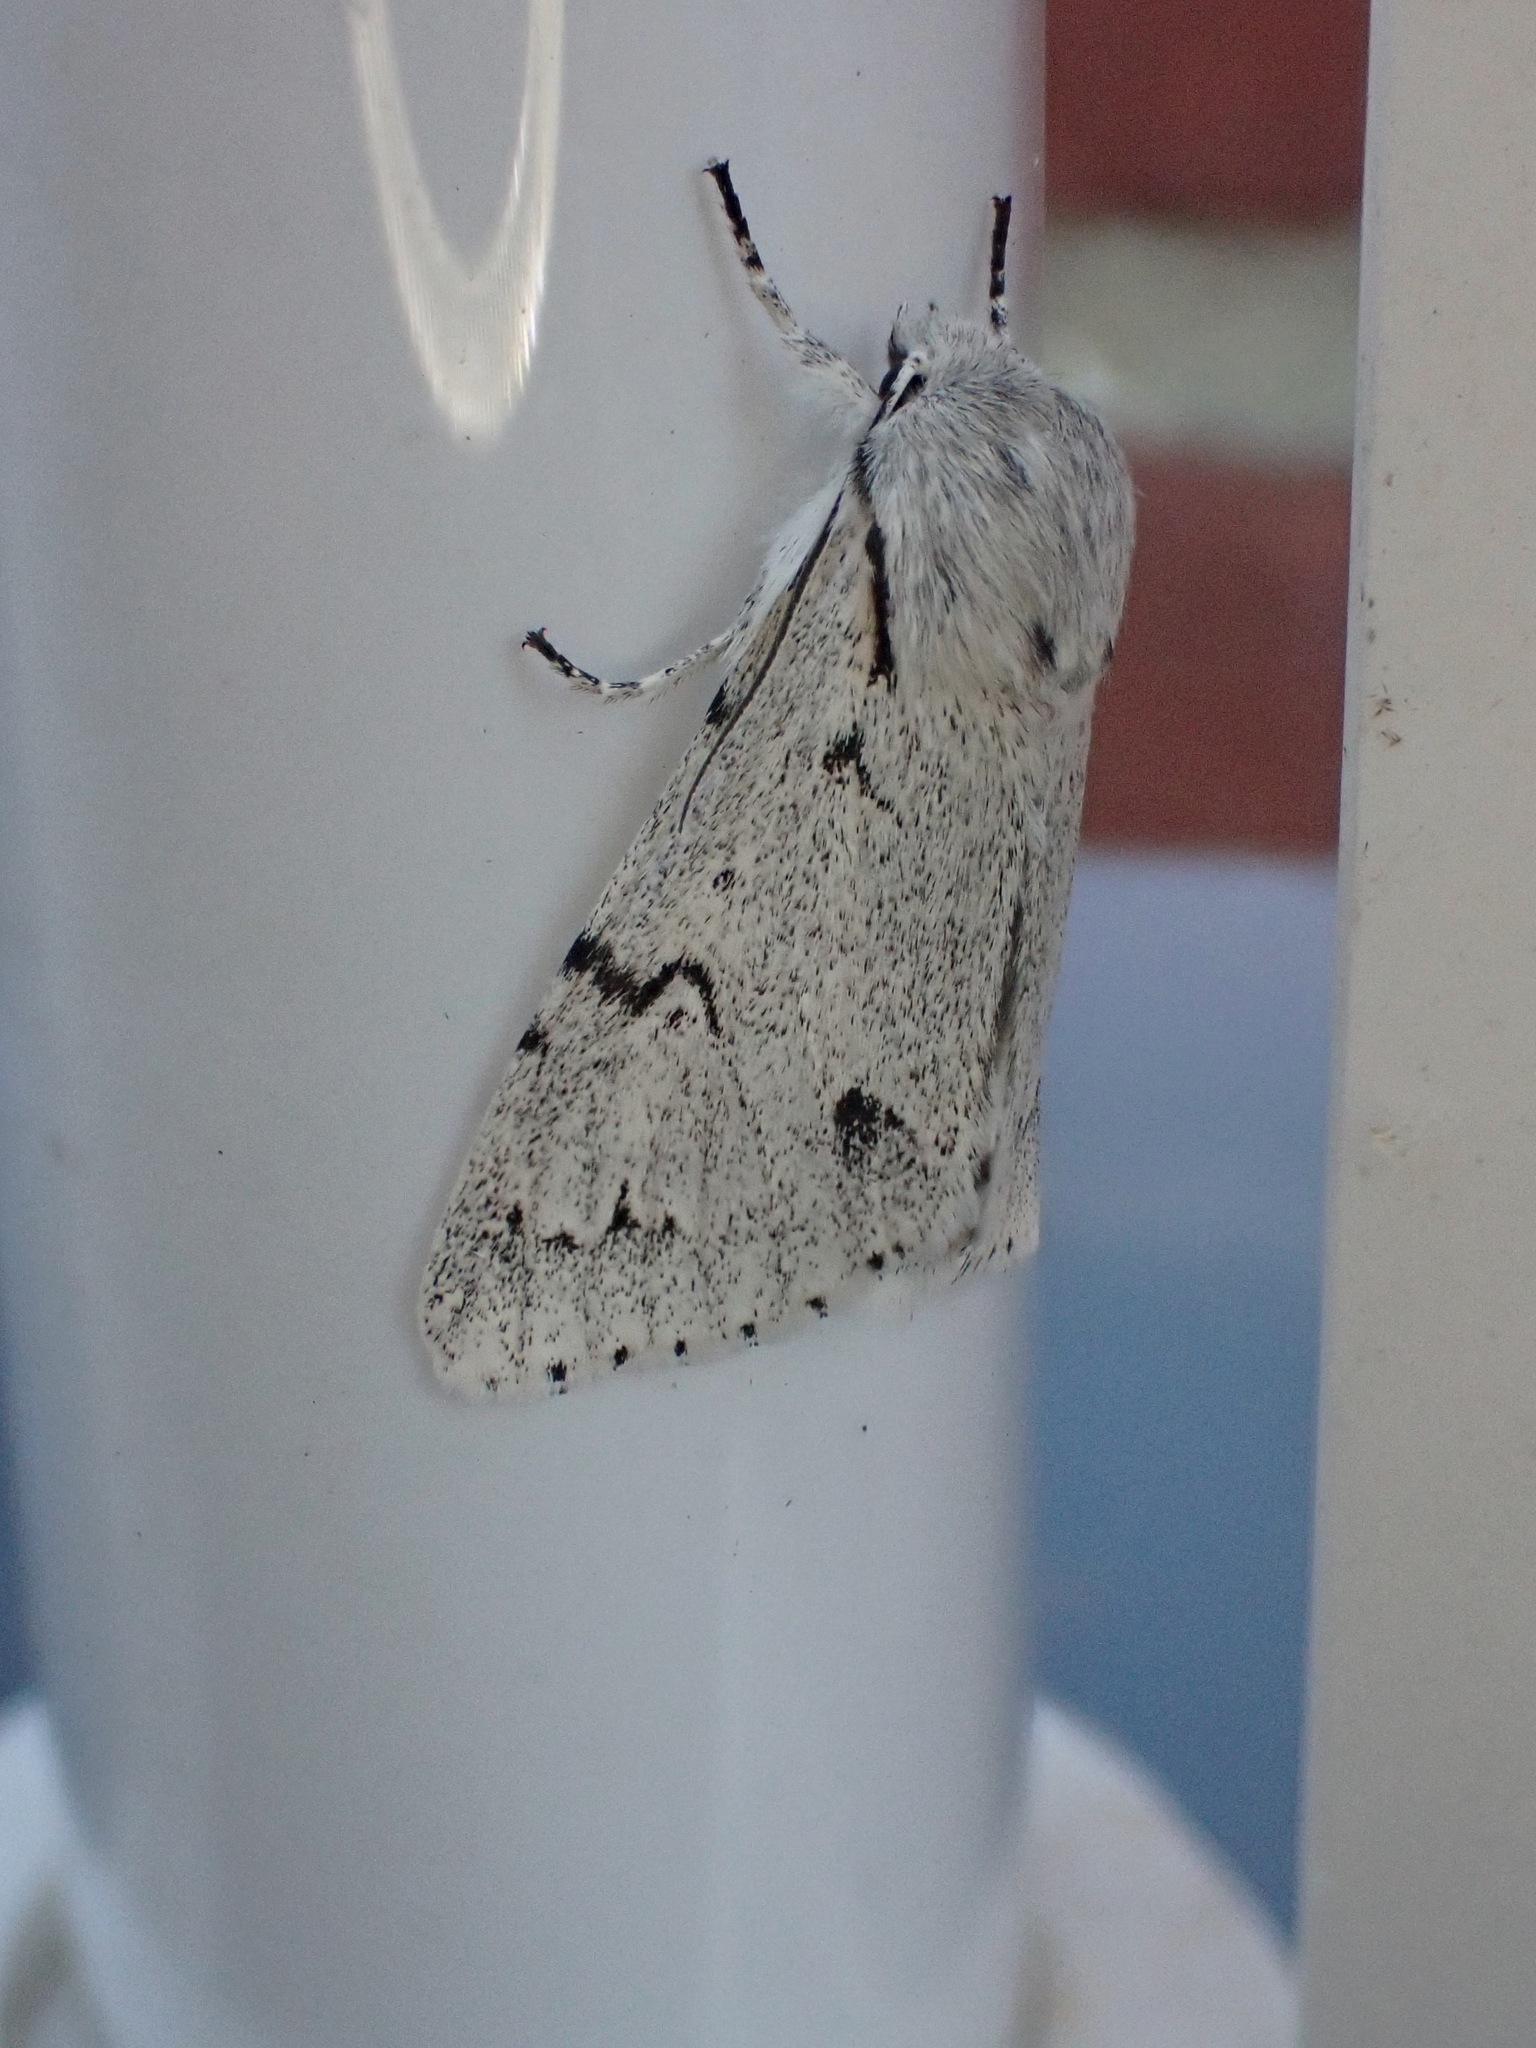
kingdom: Animalia
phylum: Arthropoda
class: Insecta
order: Lepidoptera
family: Noctuidae
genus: Acronicta
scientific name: Acronicta leporina
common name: Miller
